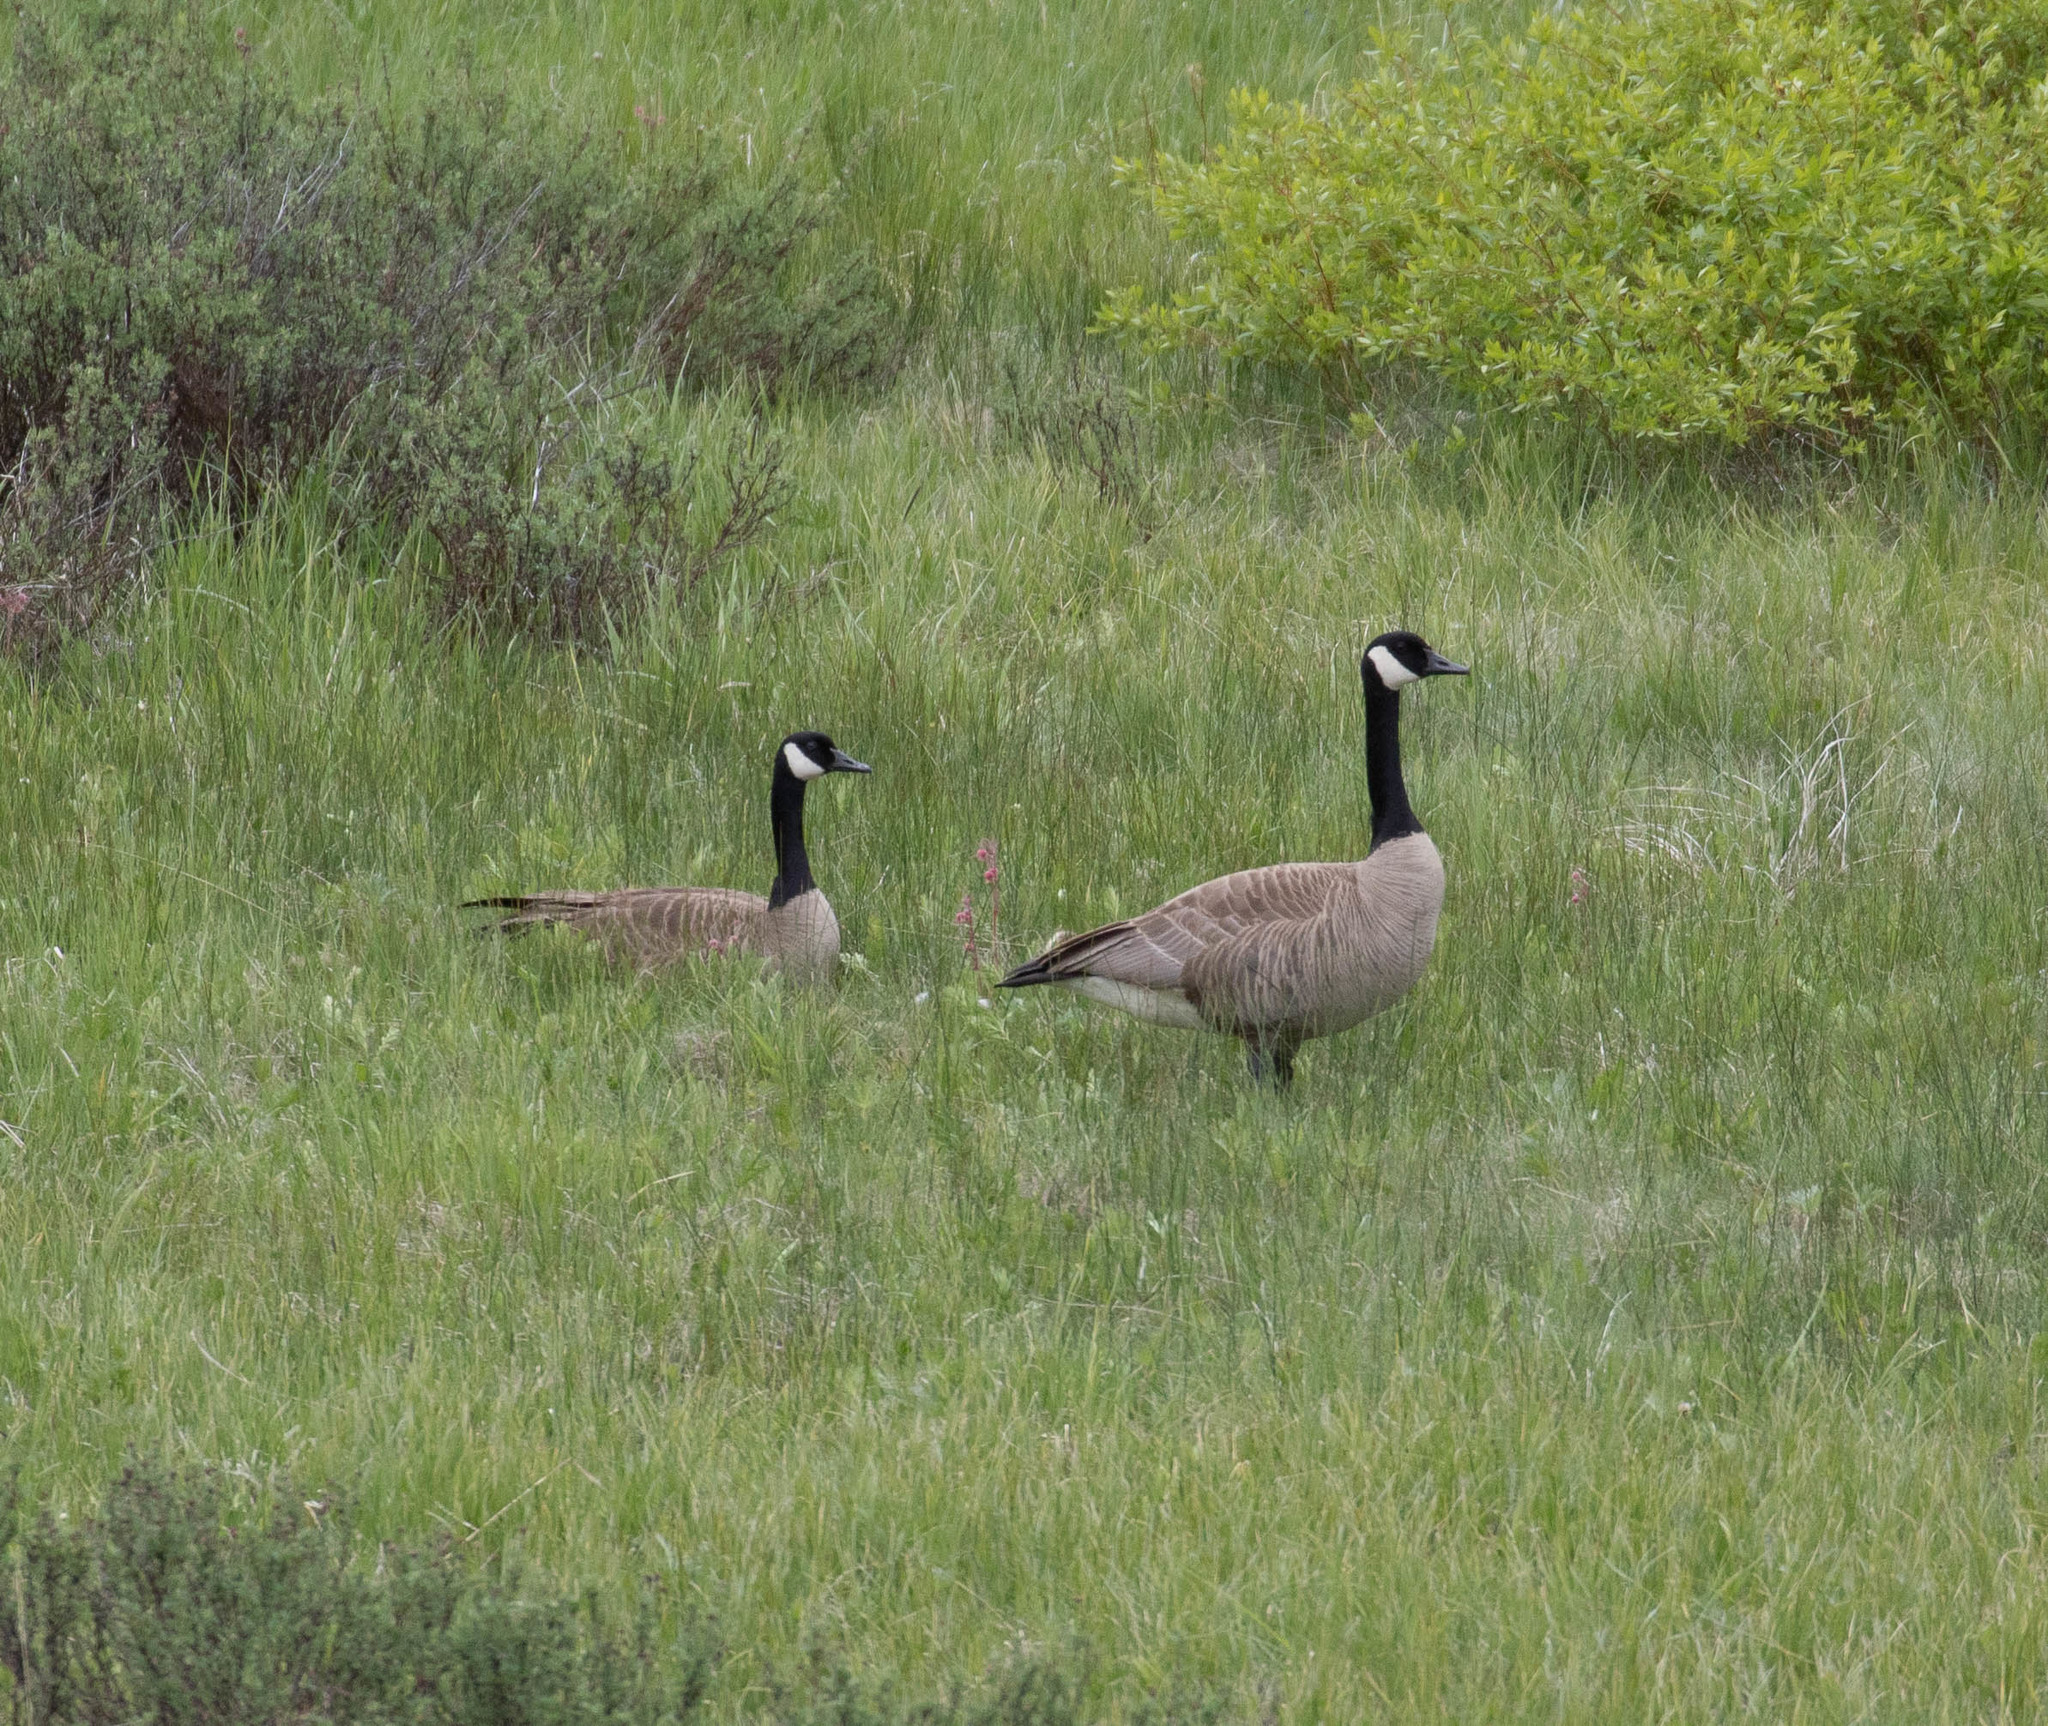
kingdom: Animalia
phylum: Chordata
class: Aves
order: Anseriformes
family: Anatidae
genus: Branta
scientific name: Branta canadensis
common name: Canada goose
